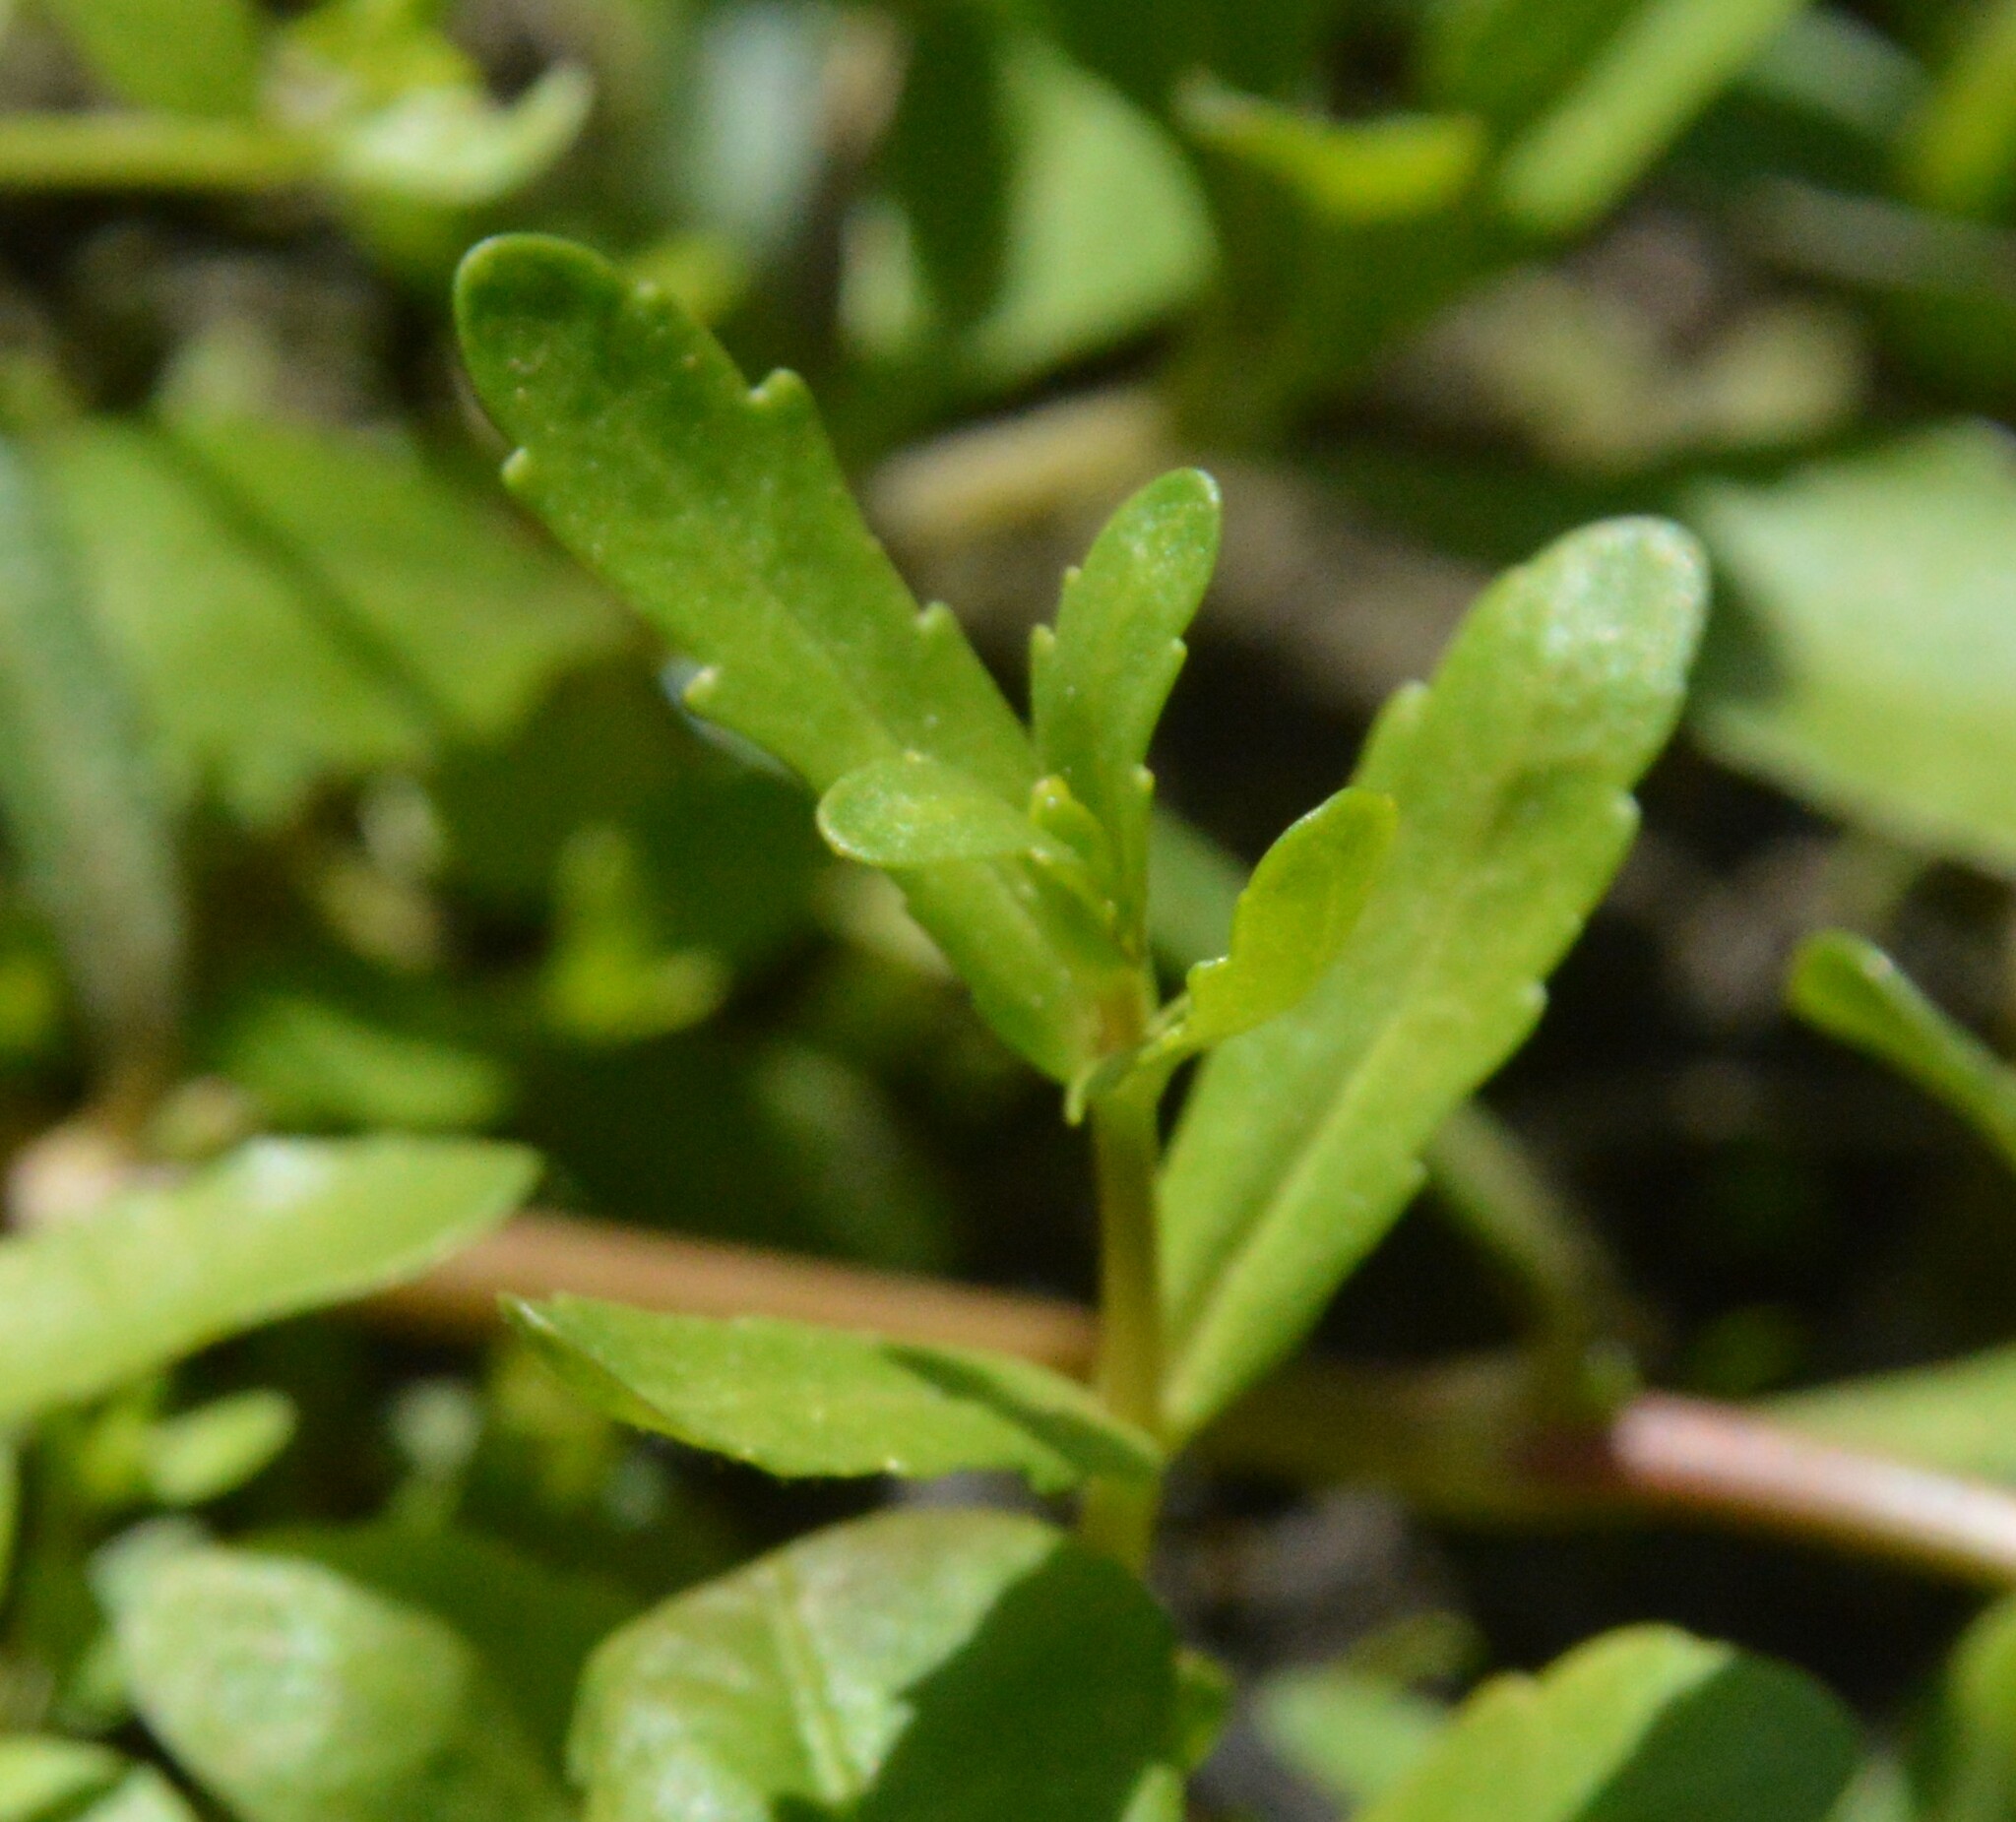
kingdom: Plantae
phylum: Tracheophyta
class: Magnoliopsida
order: Lamiales
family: Plantaginaceae
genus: Veronica
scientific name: Veronica peregrina
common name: Neckweed
